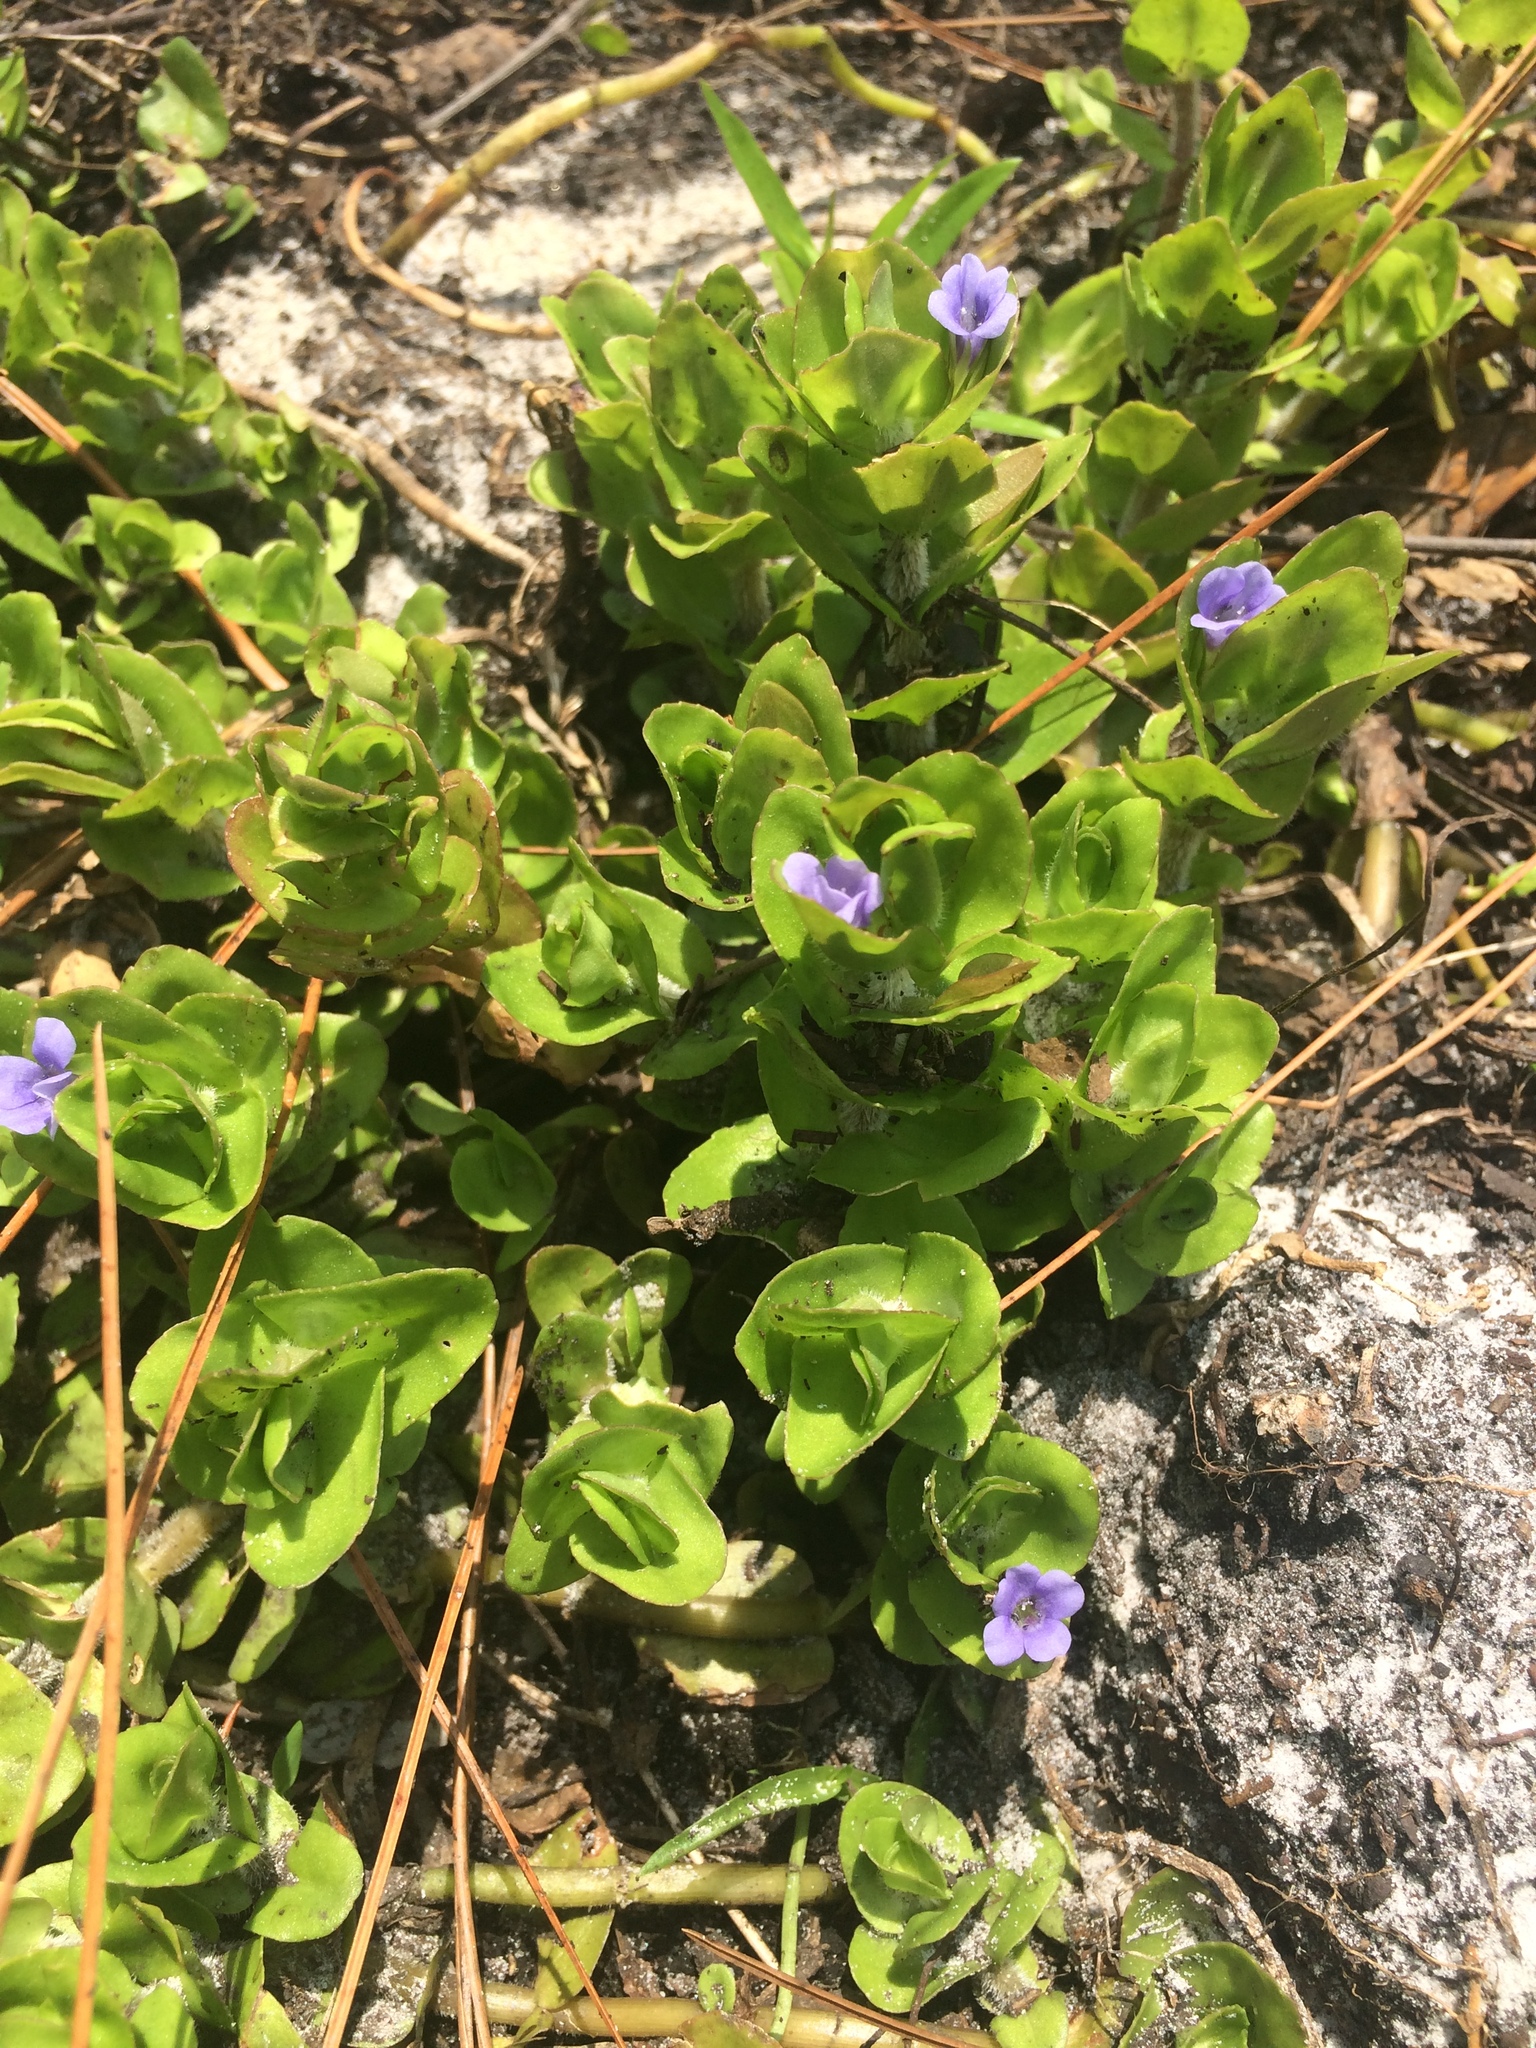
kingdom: Plantae
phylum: Tracheophyta
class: Magnoliopsida
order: Lamiales
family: Plantaginaceae
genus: Bacopa
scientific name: Bacopa caroliniana
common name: Lemon bacopa
